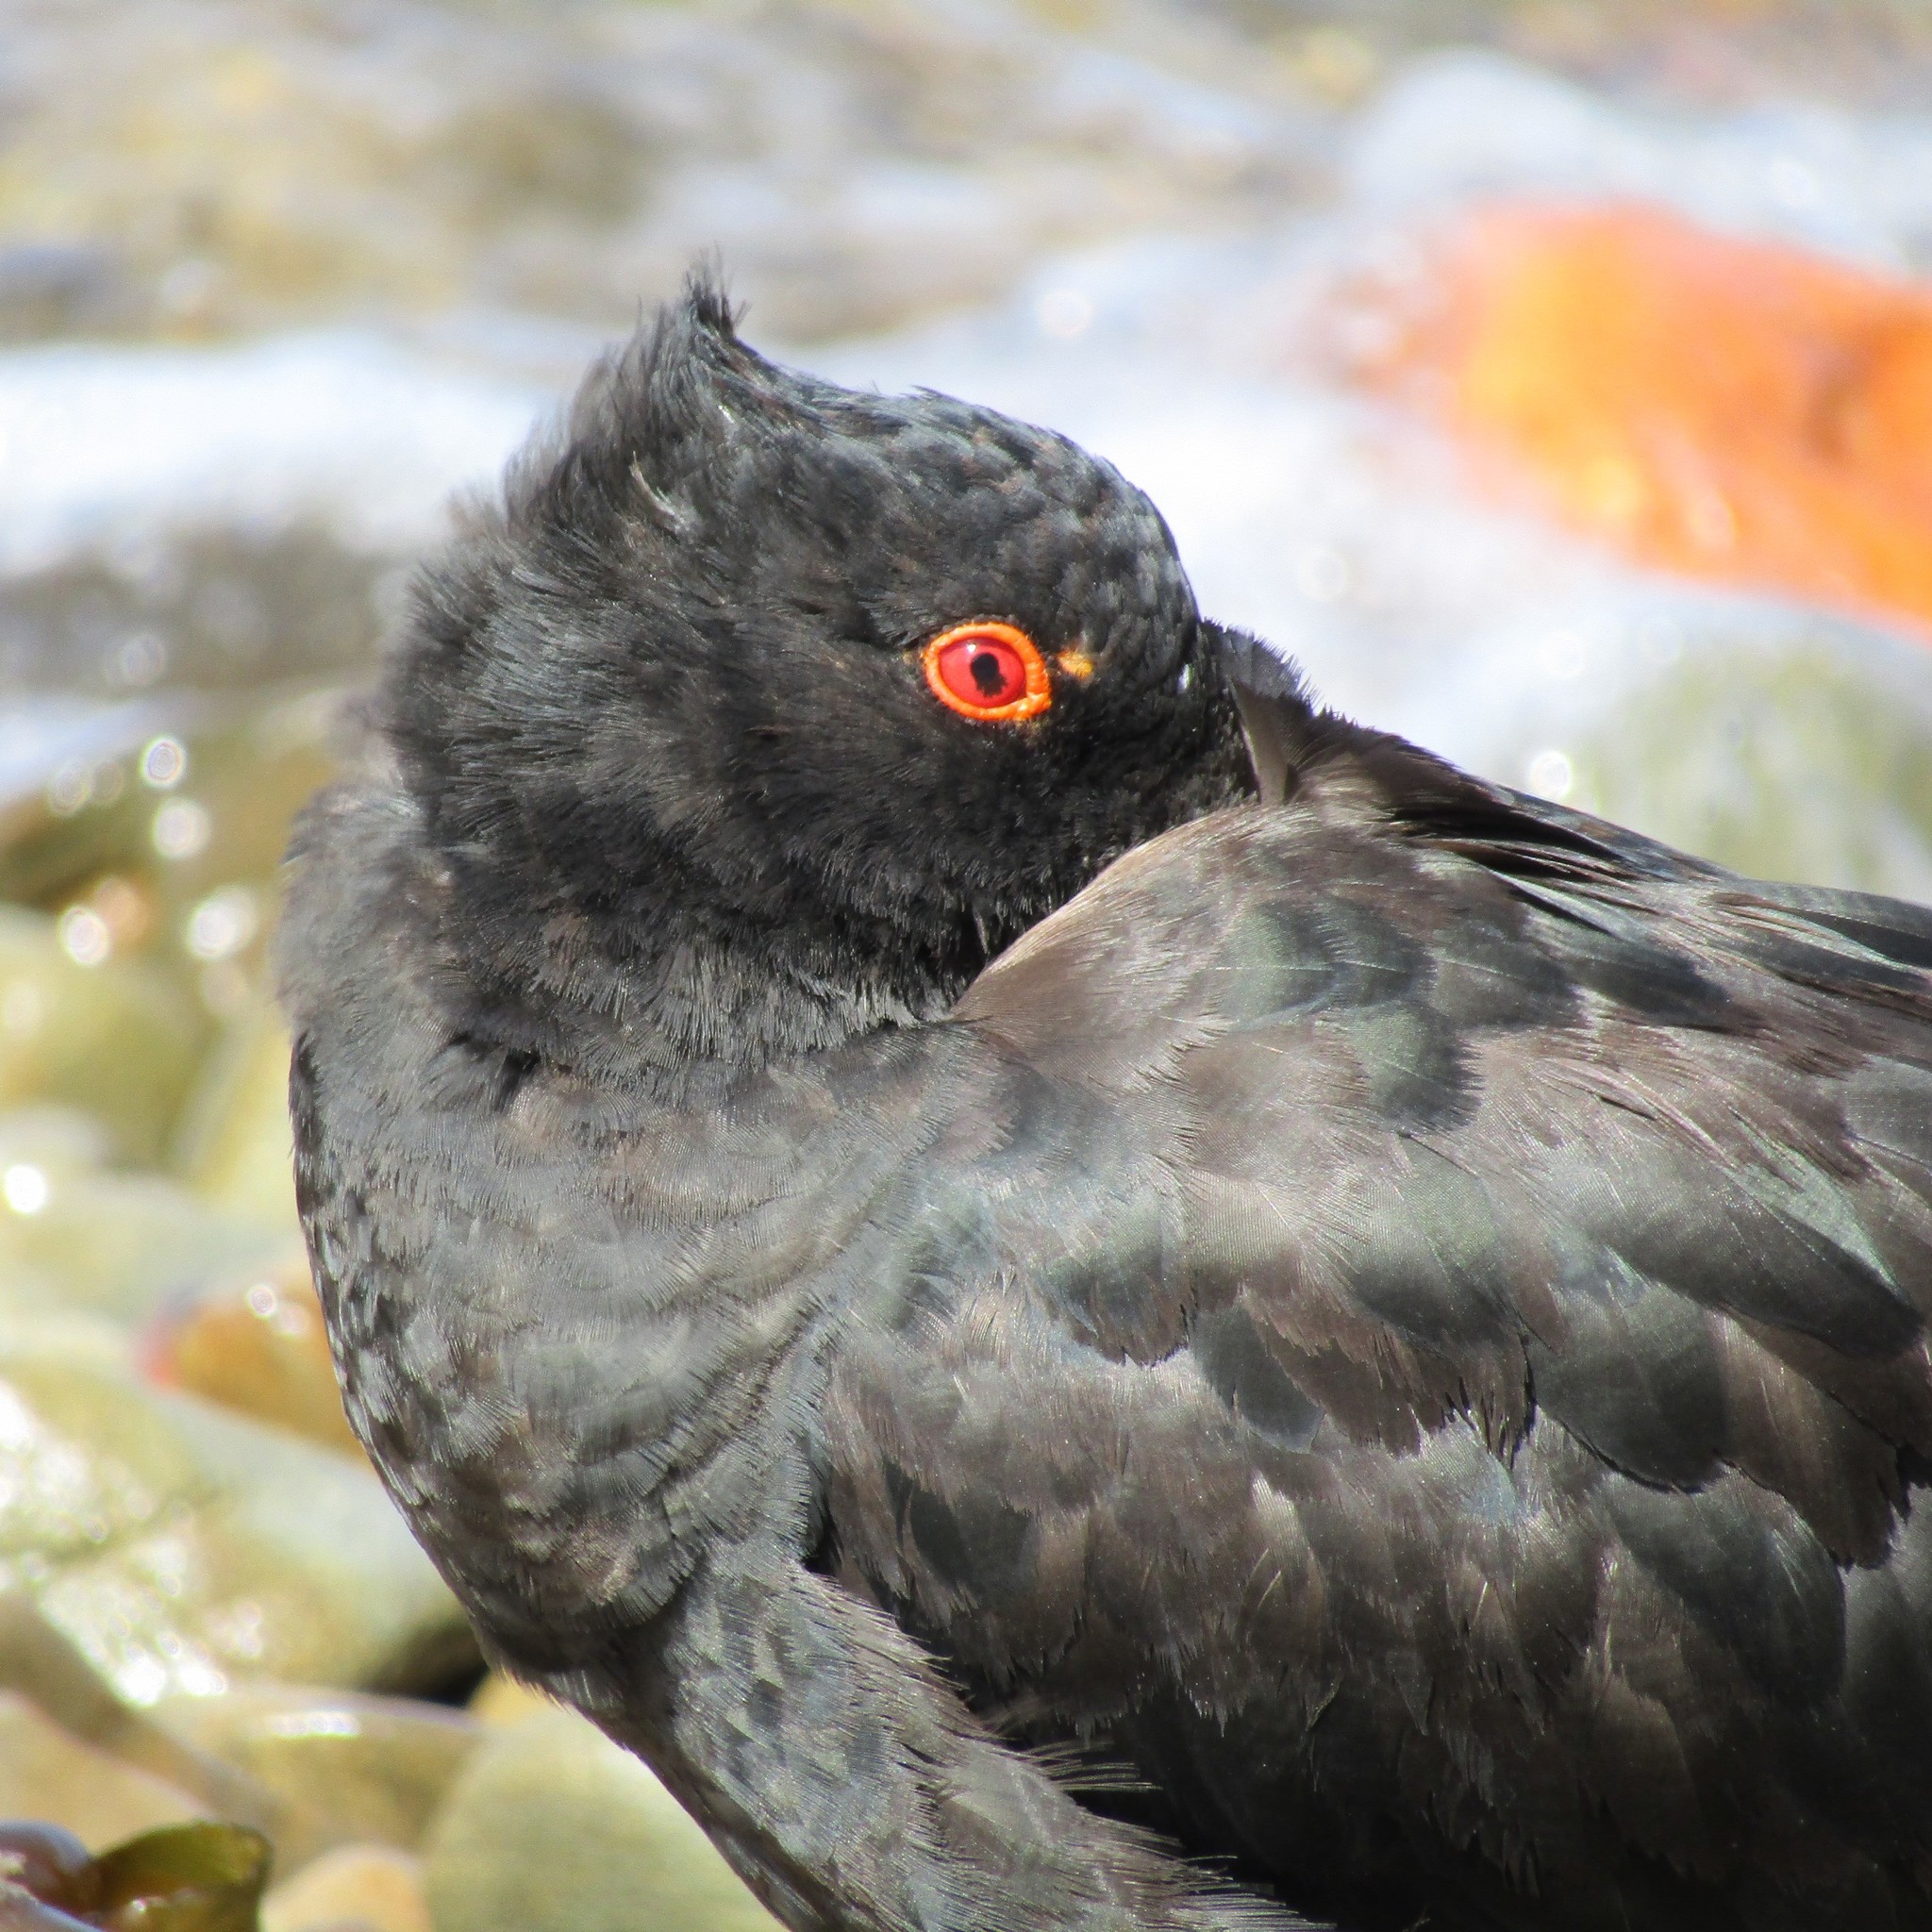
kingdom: Animalia
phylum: Chordata
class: Aves
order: Charadriiformes
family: Haematopodidae
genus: Haematopus
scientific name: Haematopus unicolor
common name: Variable oystercatcher
